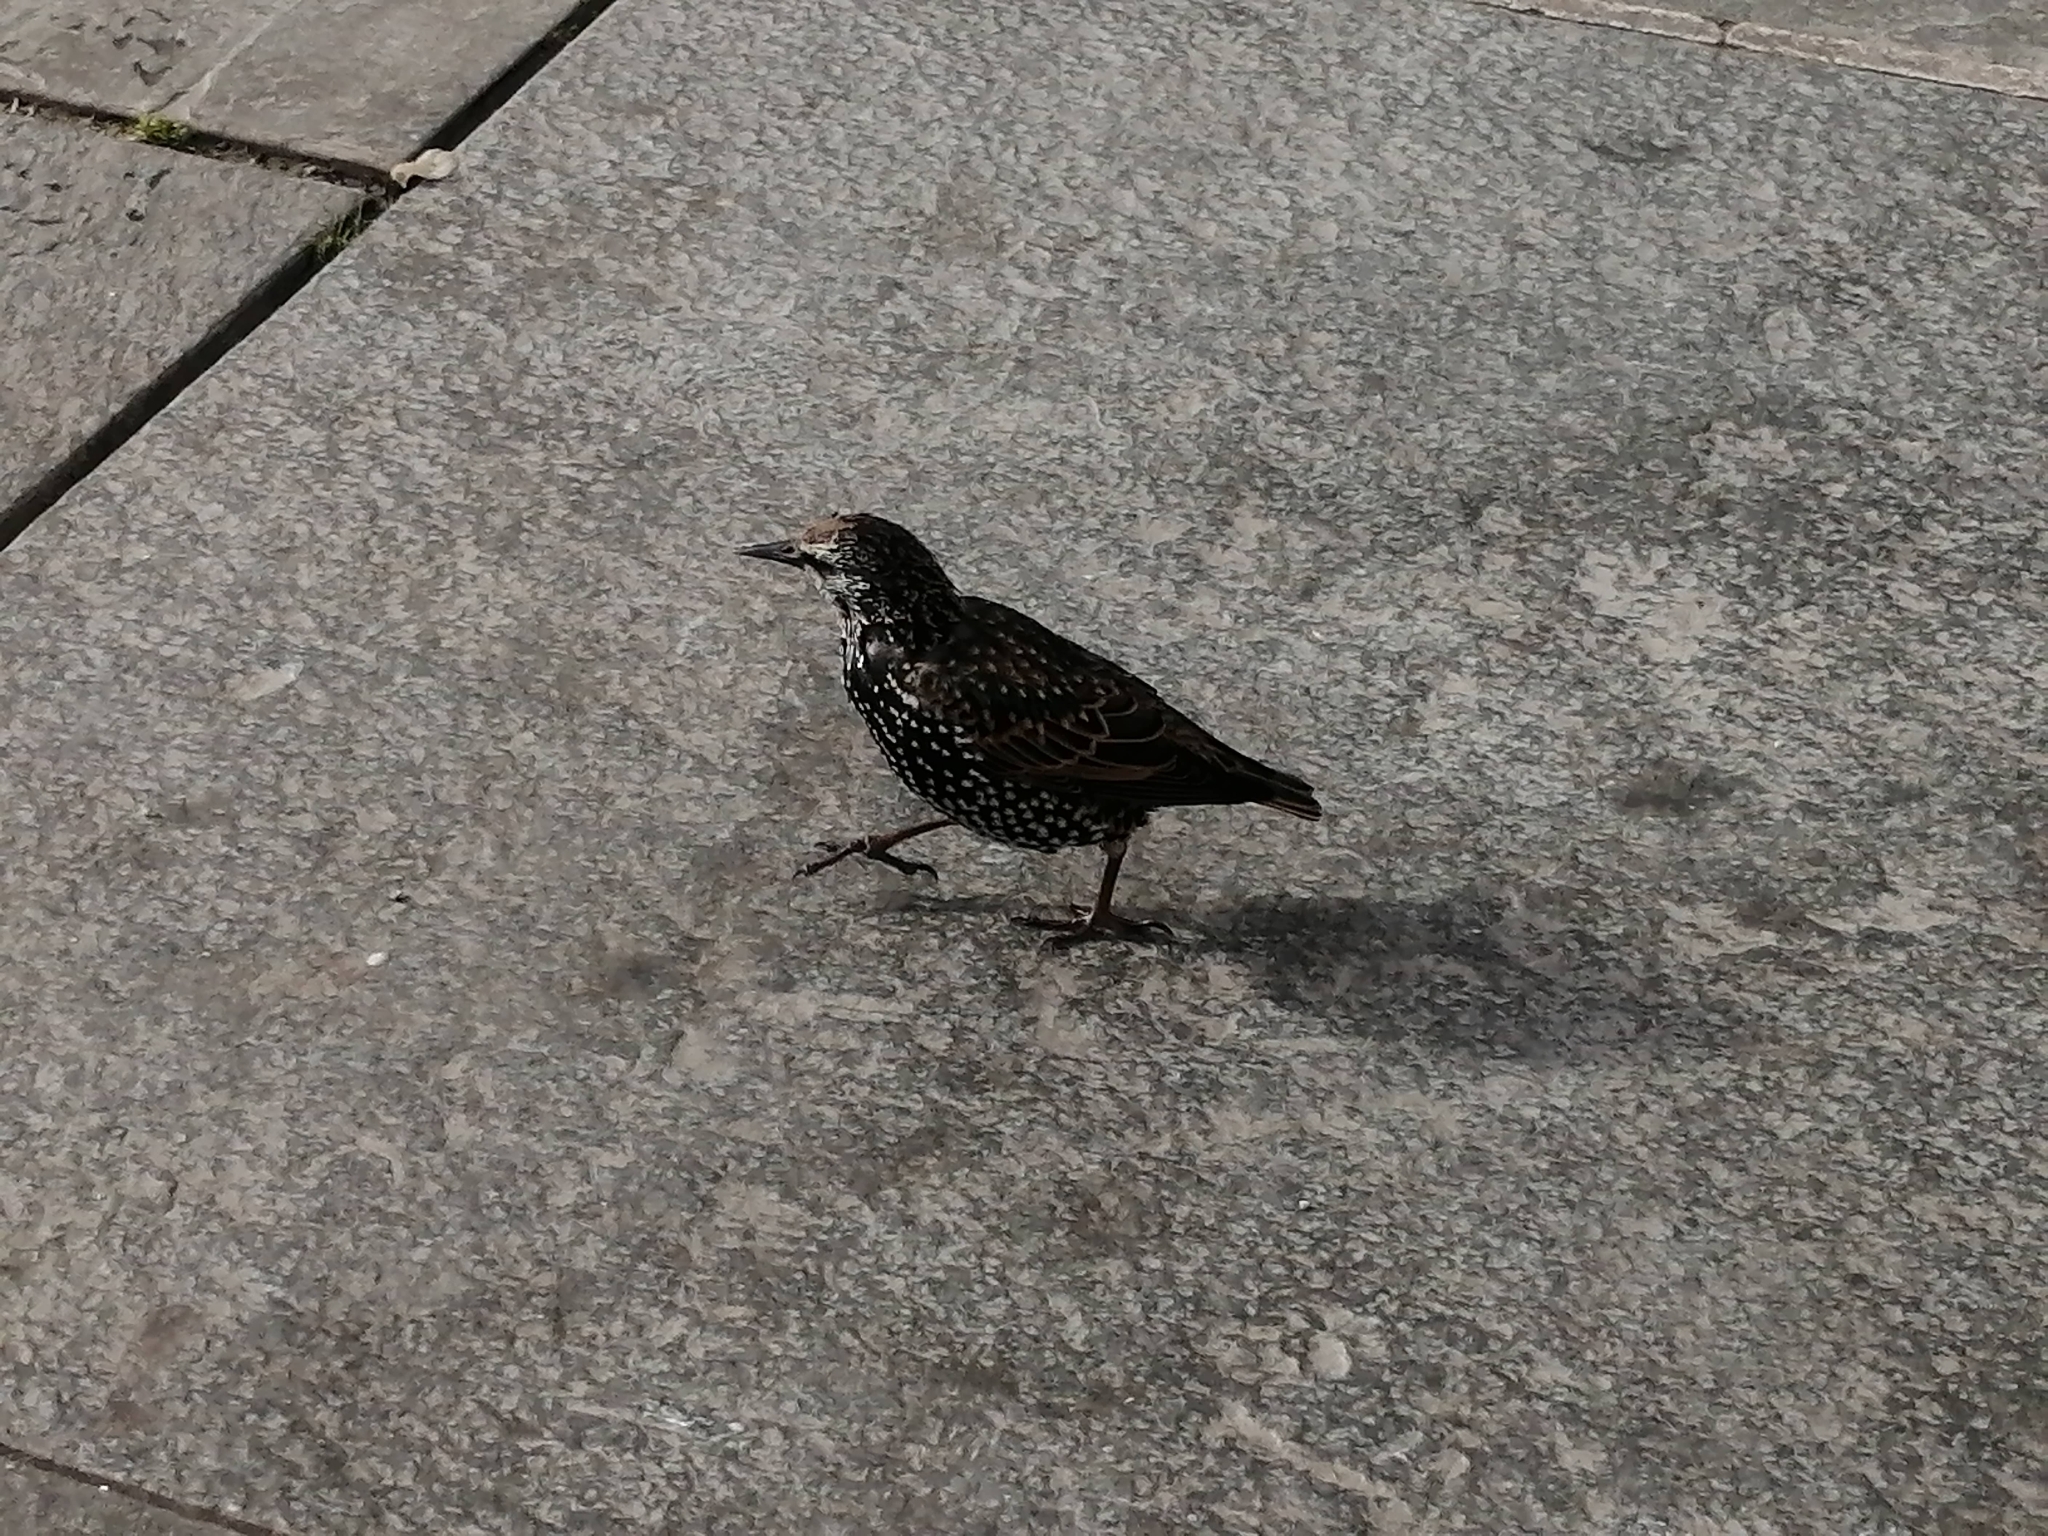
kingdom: Animalia
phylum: Chordata
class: Aves
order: Passeriformes
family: Sturnidae
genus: Sturnus
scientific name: Sturnus vulgaris
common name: Common starling
